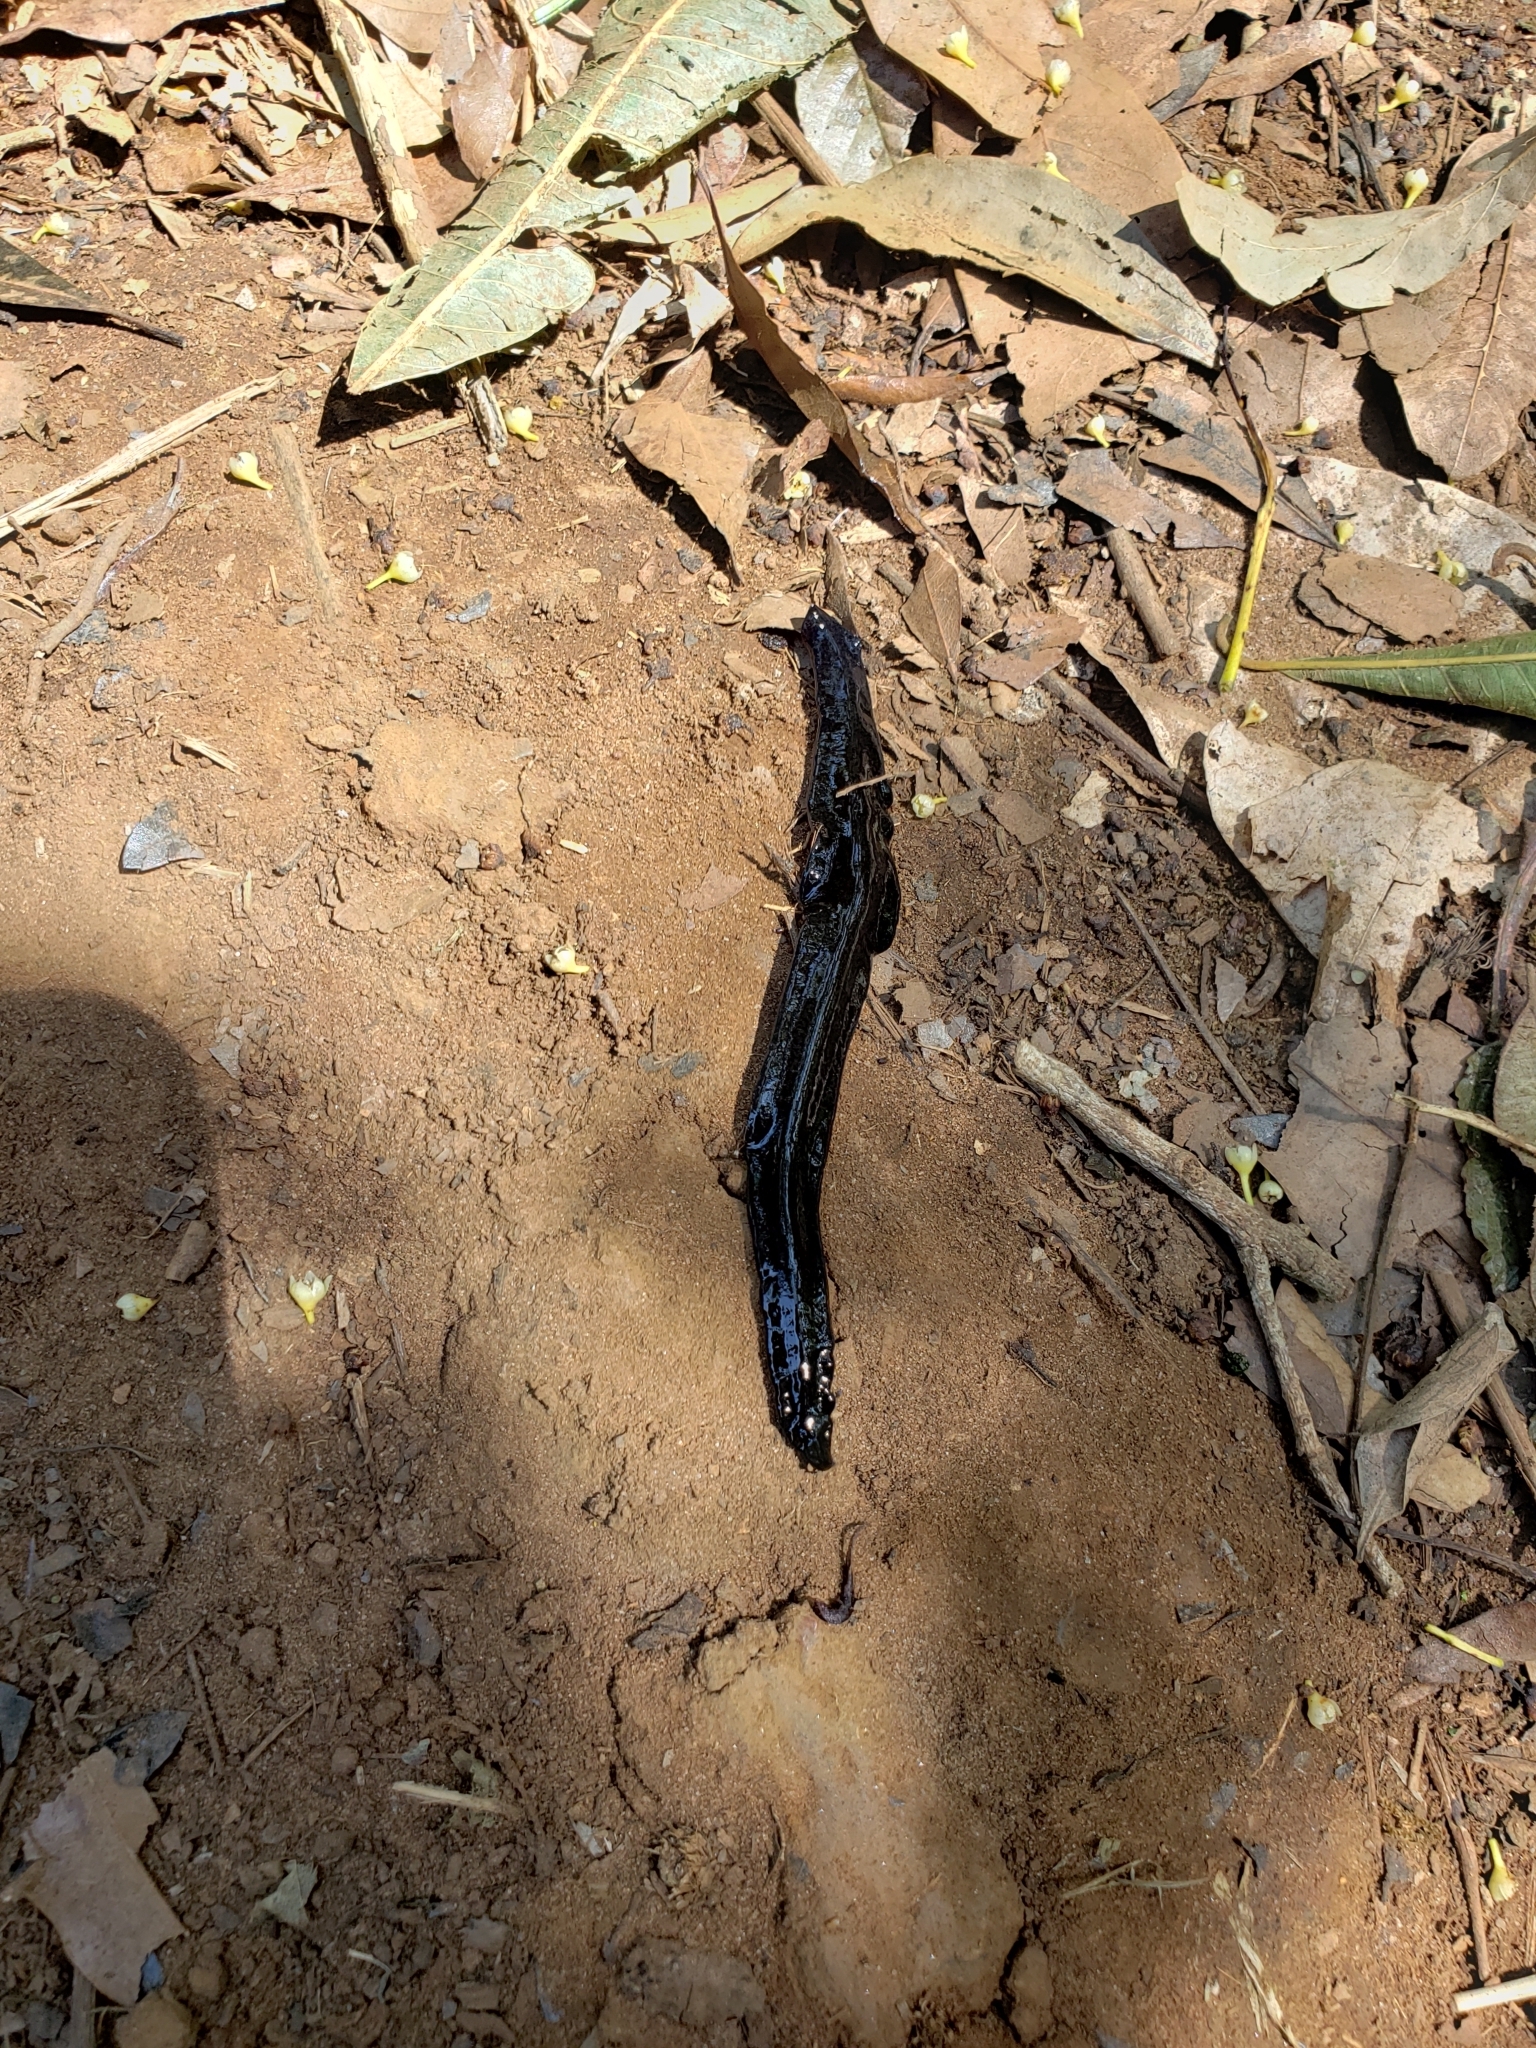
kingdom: Animalia
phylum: Platyhelminthes
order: Tricladida
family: Geoplanidae
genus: Obama
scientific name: Obama carbayoi
